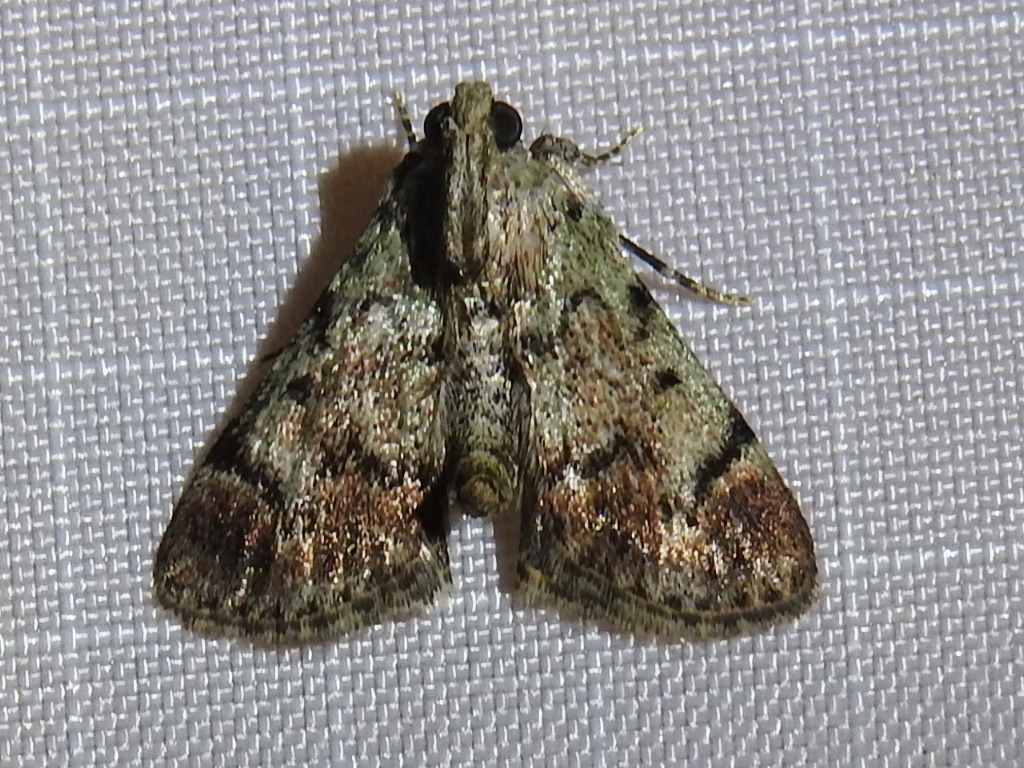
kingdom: Animalia
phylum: Arthropoda
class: Insecta
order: Lepidoptera
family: Pyralidae
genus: Epipaschia
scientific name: Epipaschia superatalis
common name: Dimorphic macalla moth
